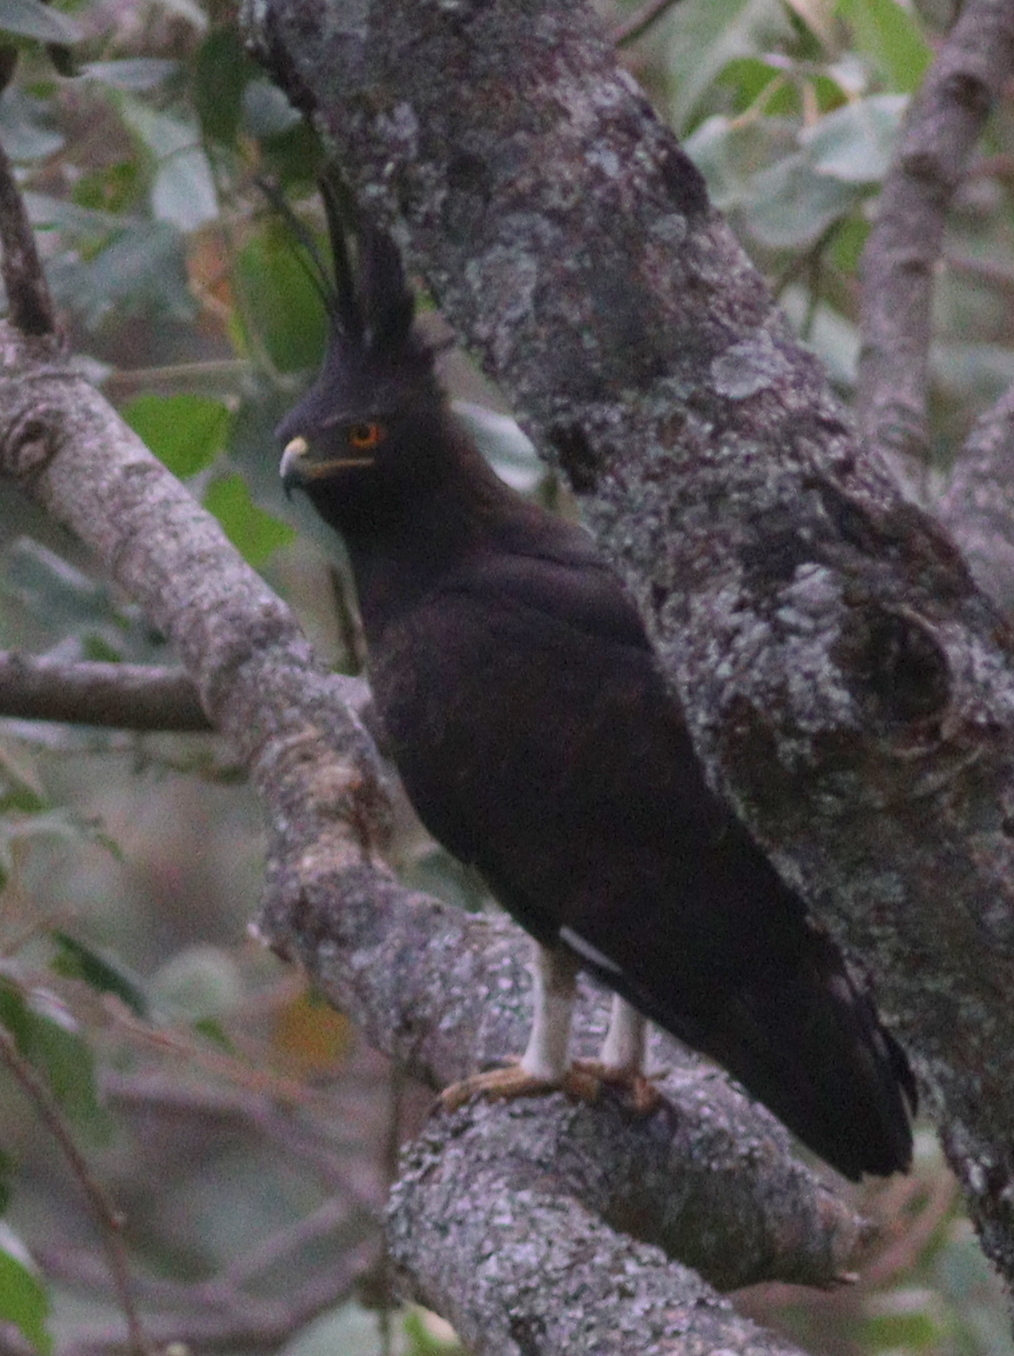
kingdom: Animalia
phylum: Chordata
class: Aves
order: Accipitriformes
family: Accipitridae
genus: Lophaetus
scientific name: Lophaetus occipitalis
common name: Long-crested eagle
